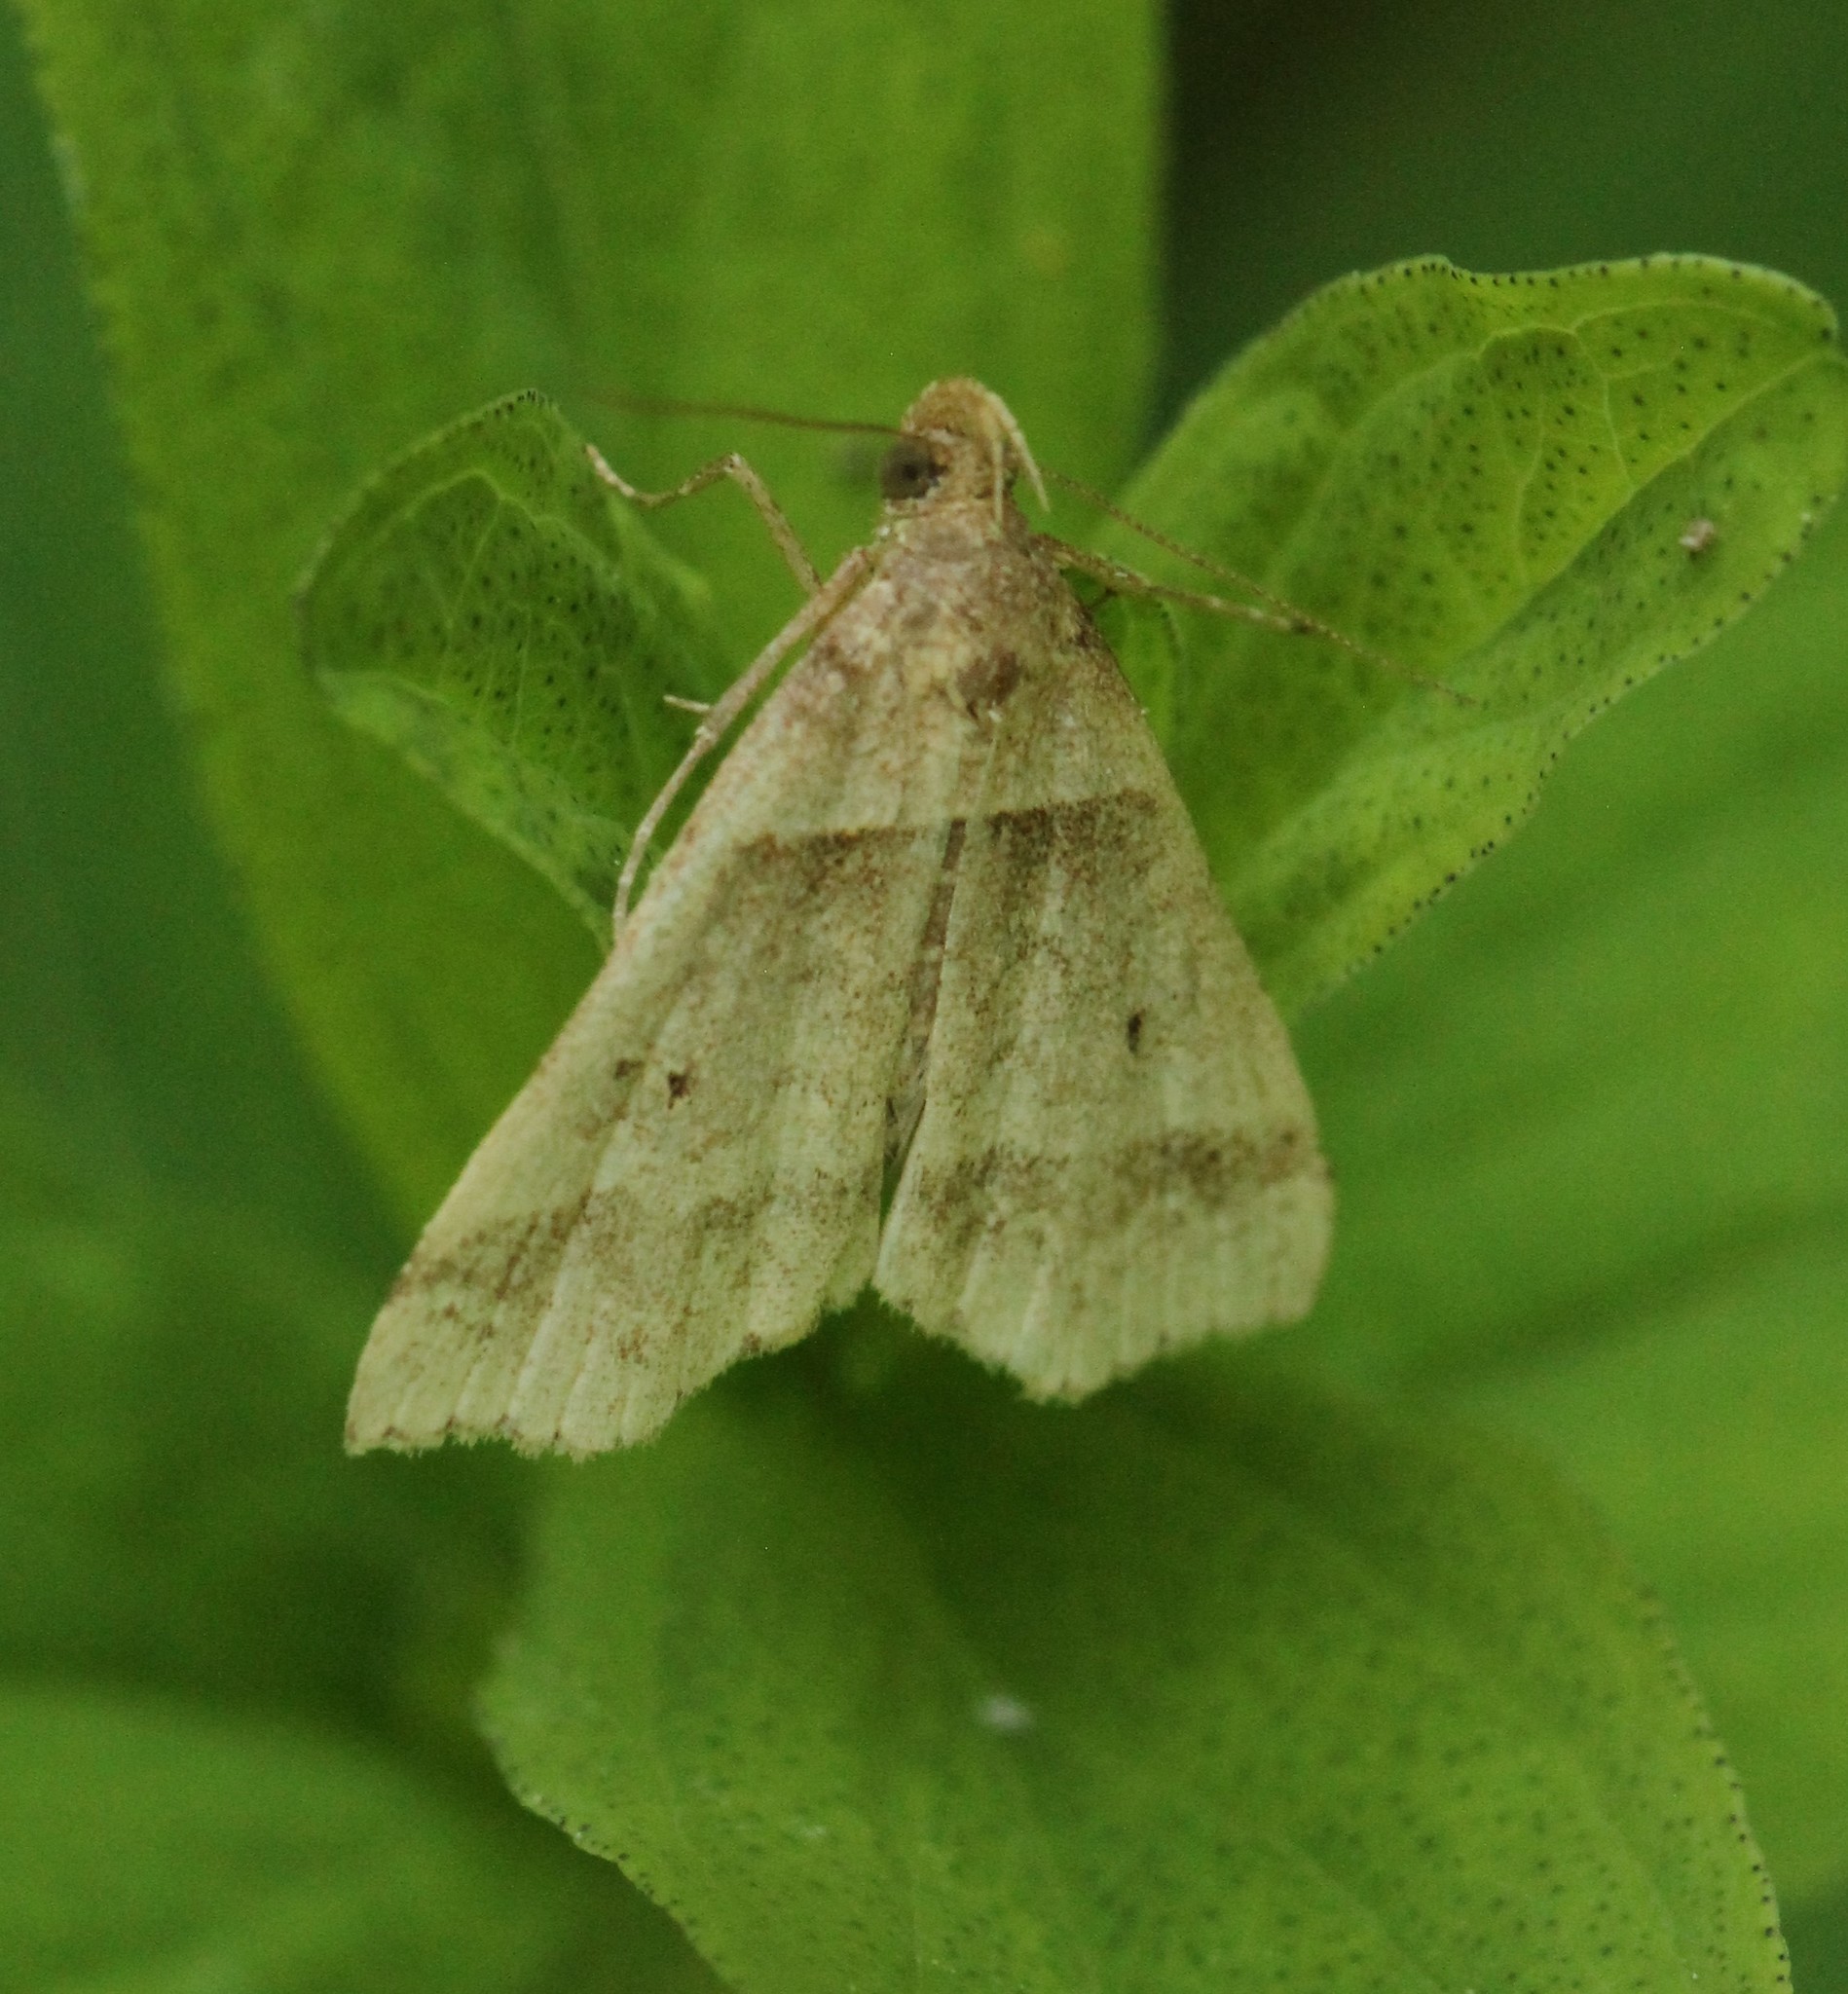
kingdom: Animalia
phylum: Arthropoda
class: Insecta
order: Lepidoptera
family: Erebidae
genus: Phaeolita
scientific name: Phaeolita pyramusalis
